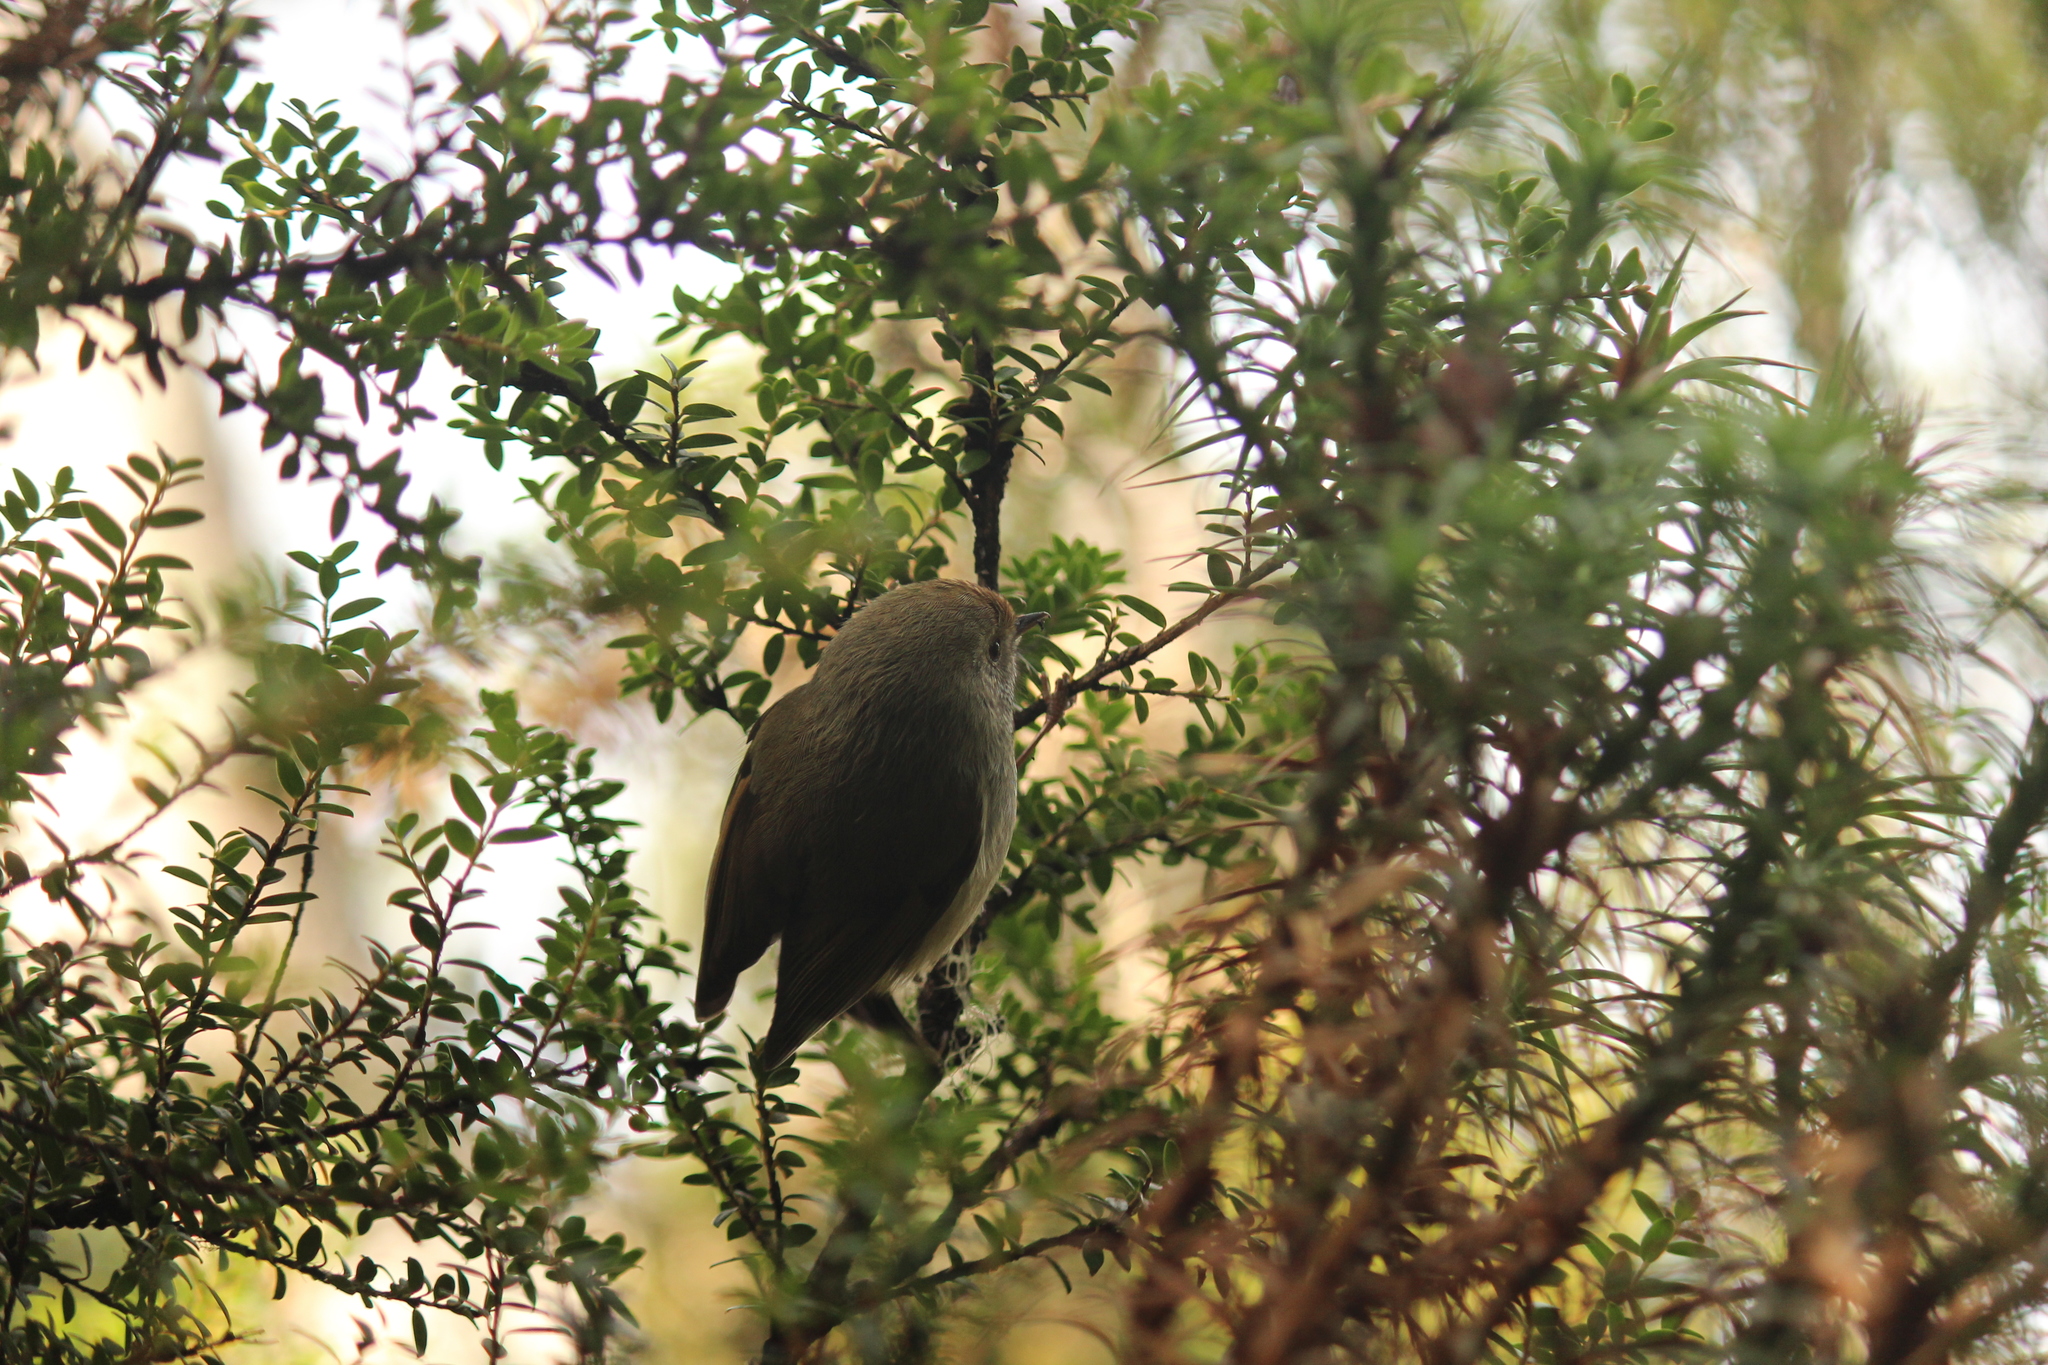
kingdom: Animalia
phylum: Chordata
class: Aves
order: Passeriformes
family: Acanthizidae
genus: Acanthiza
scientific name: Acanthiza ewingii
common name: Tasmanian thornbill
